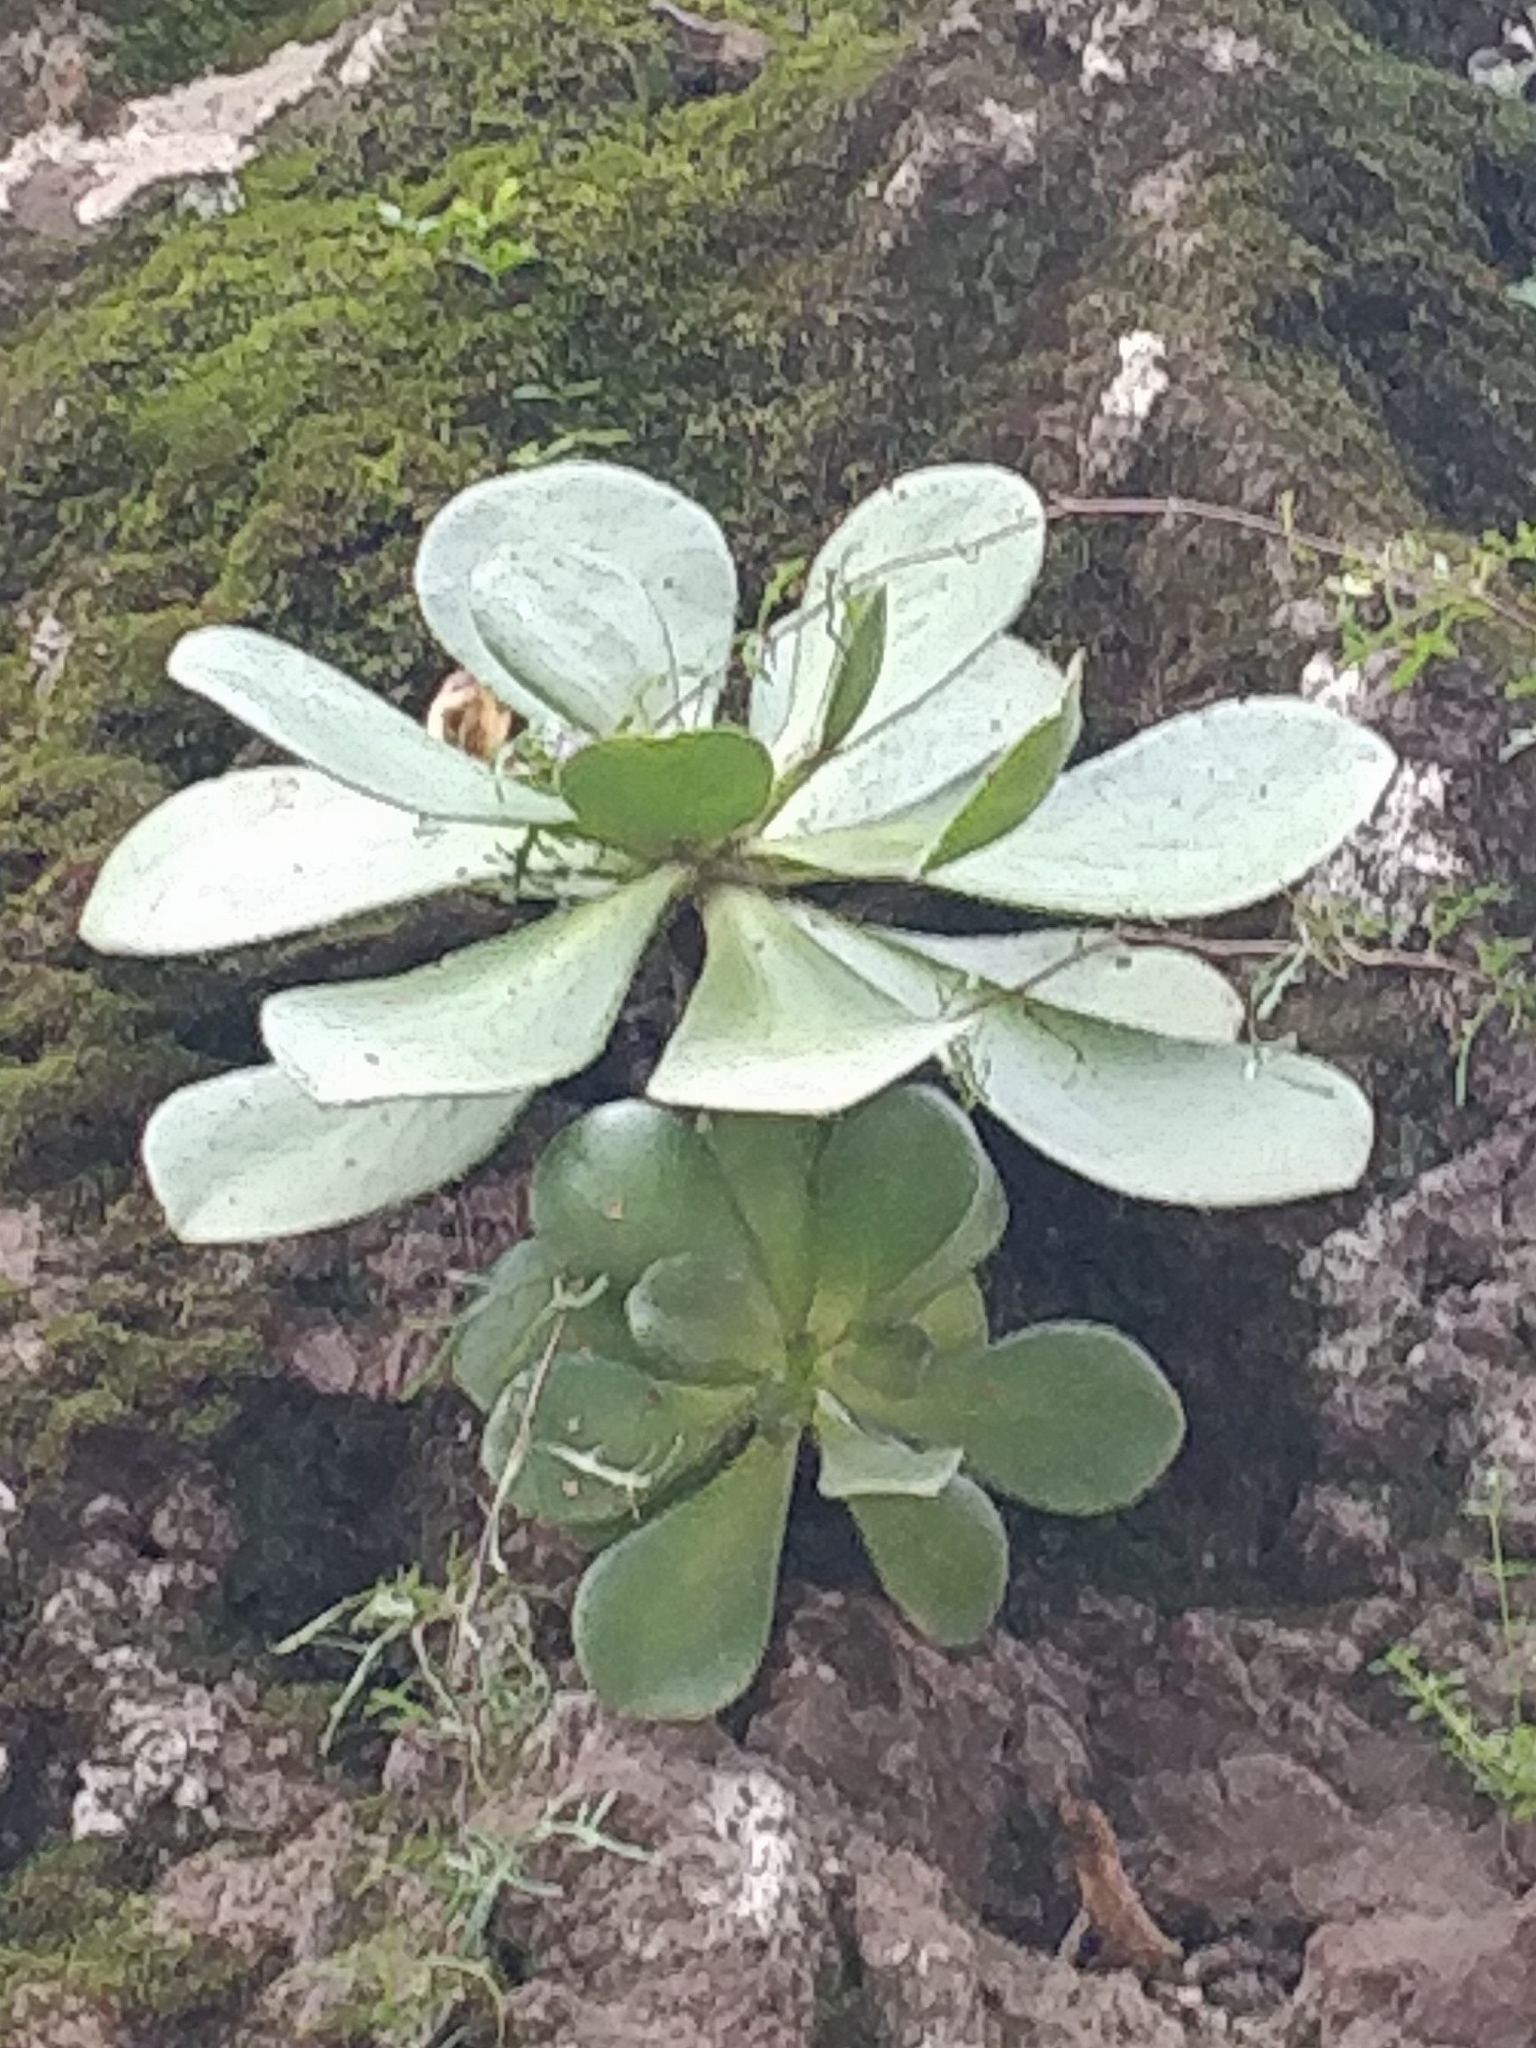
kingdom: Plantae
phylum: Tracheophyta
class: Magnoliopsida
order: Saxifragales
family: Crassulaceae
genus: Aeonium
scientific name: Aeonium glutinosum
